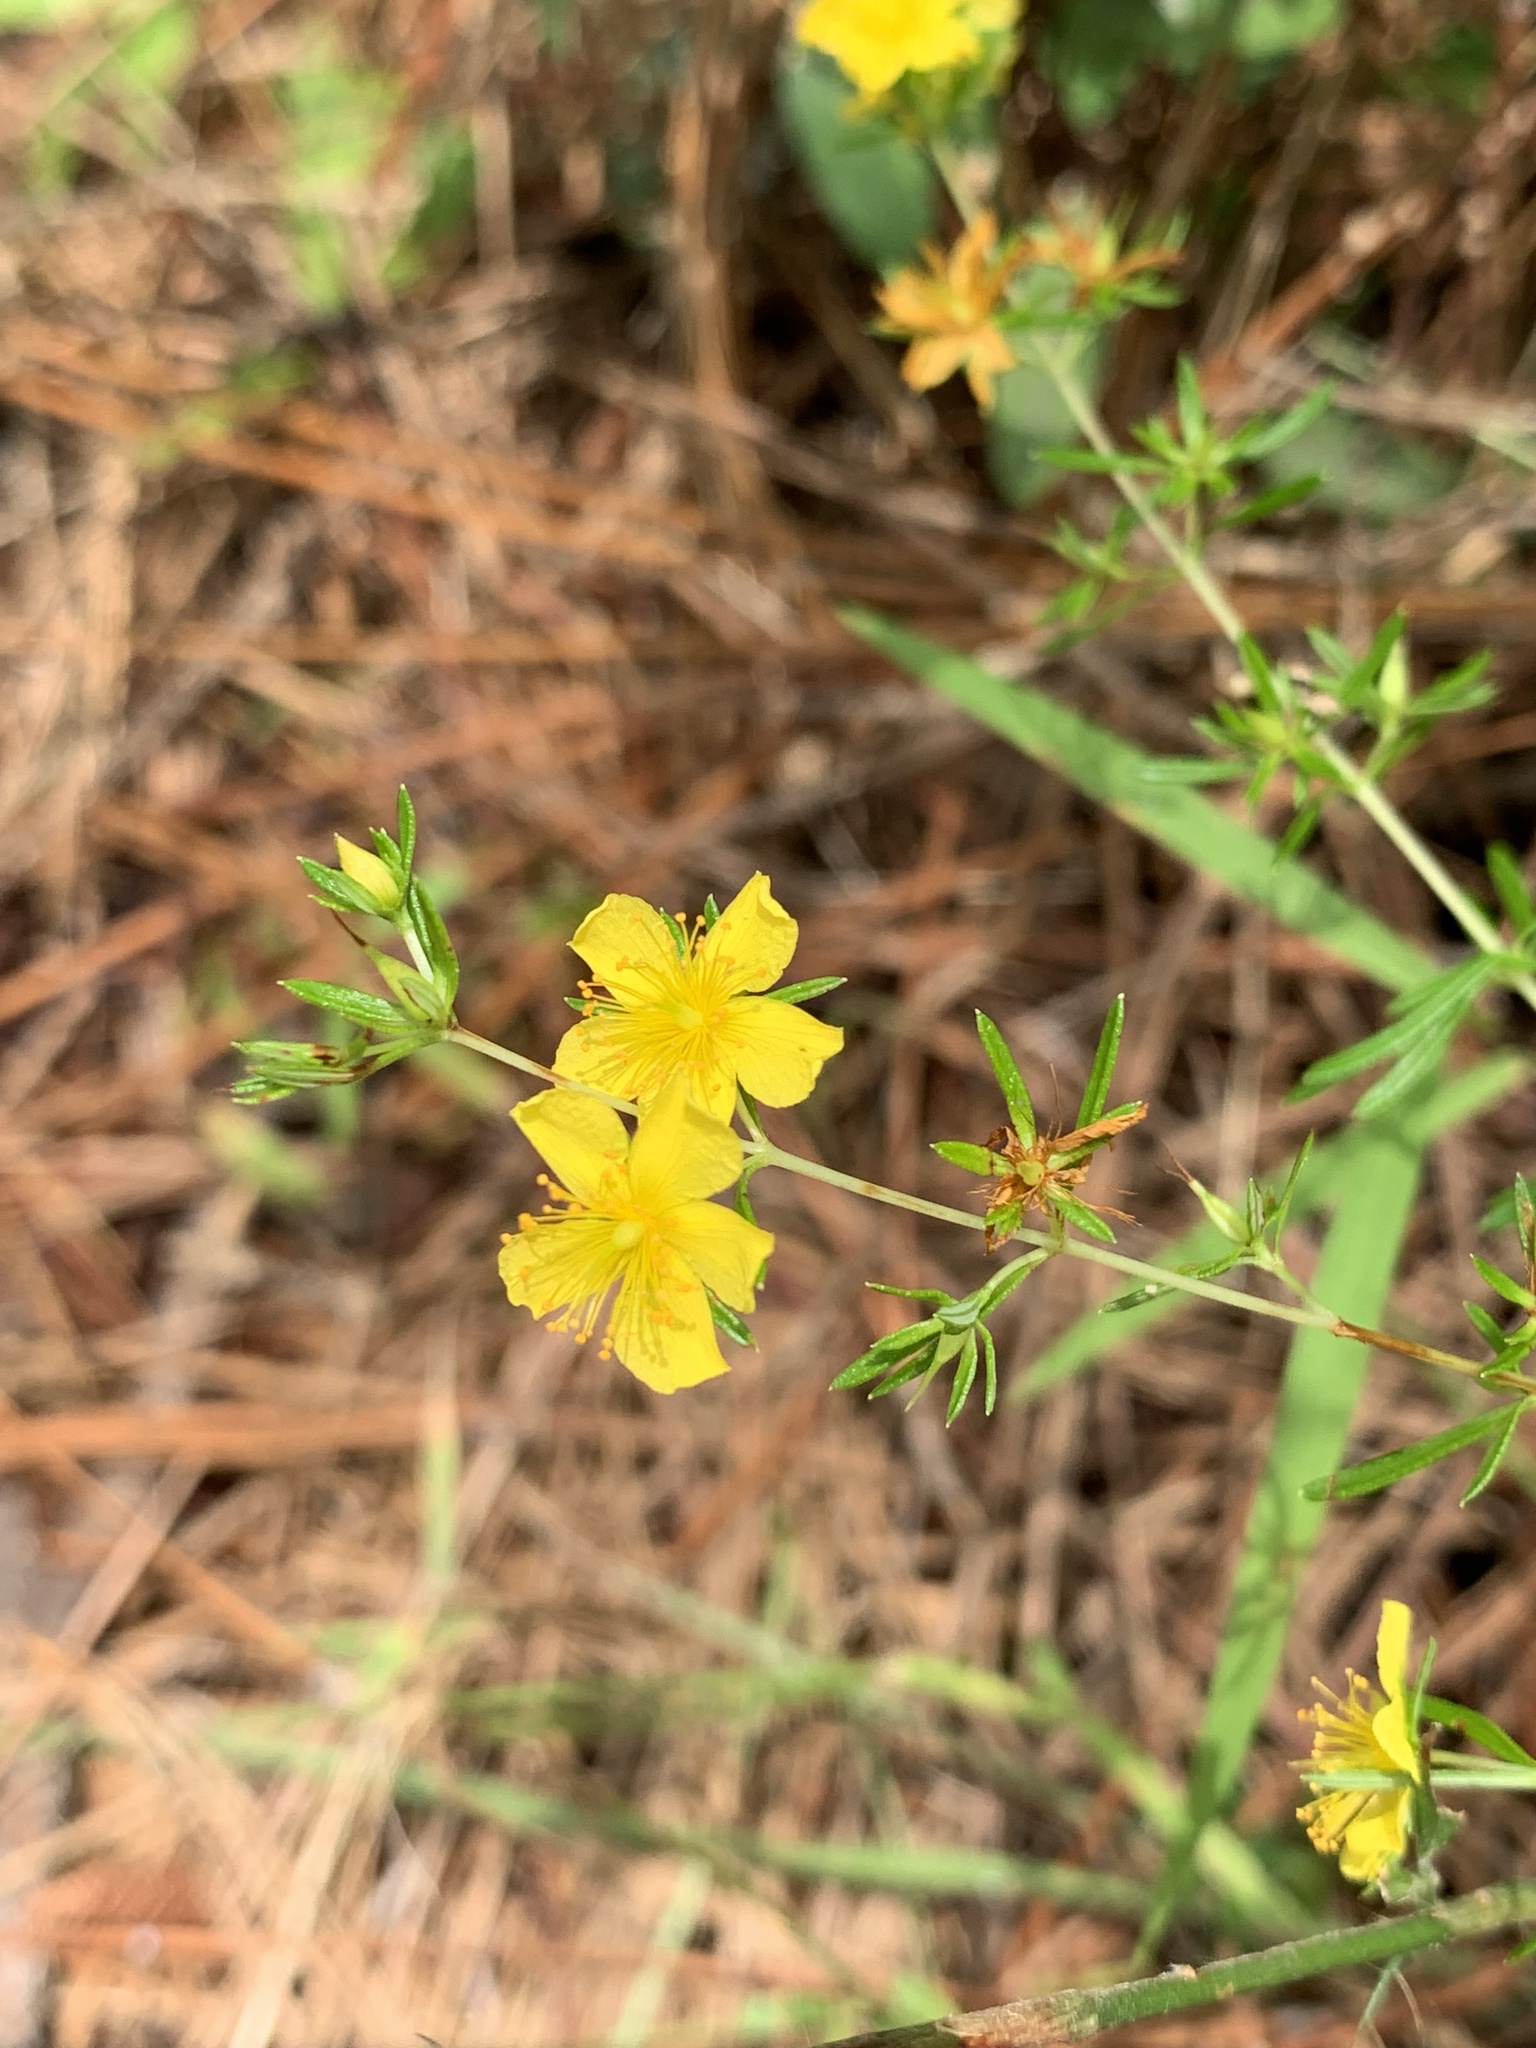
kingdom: Plantae
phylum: Tracheophyta
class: Magnoliopsida
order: Malpighiales
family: Hypericaceae
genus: Hypericum
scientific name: Hypericum galioides
